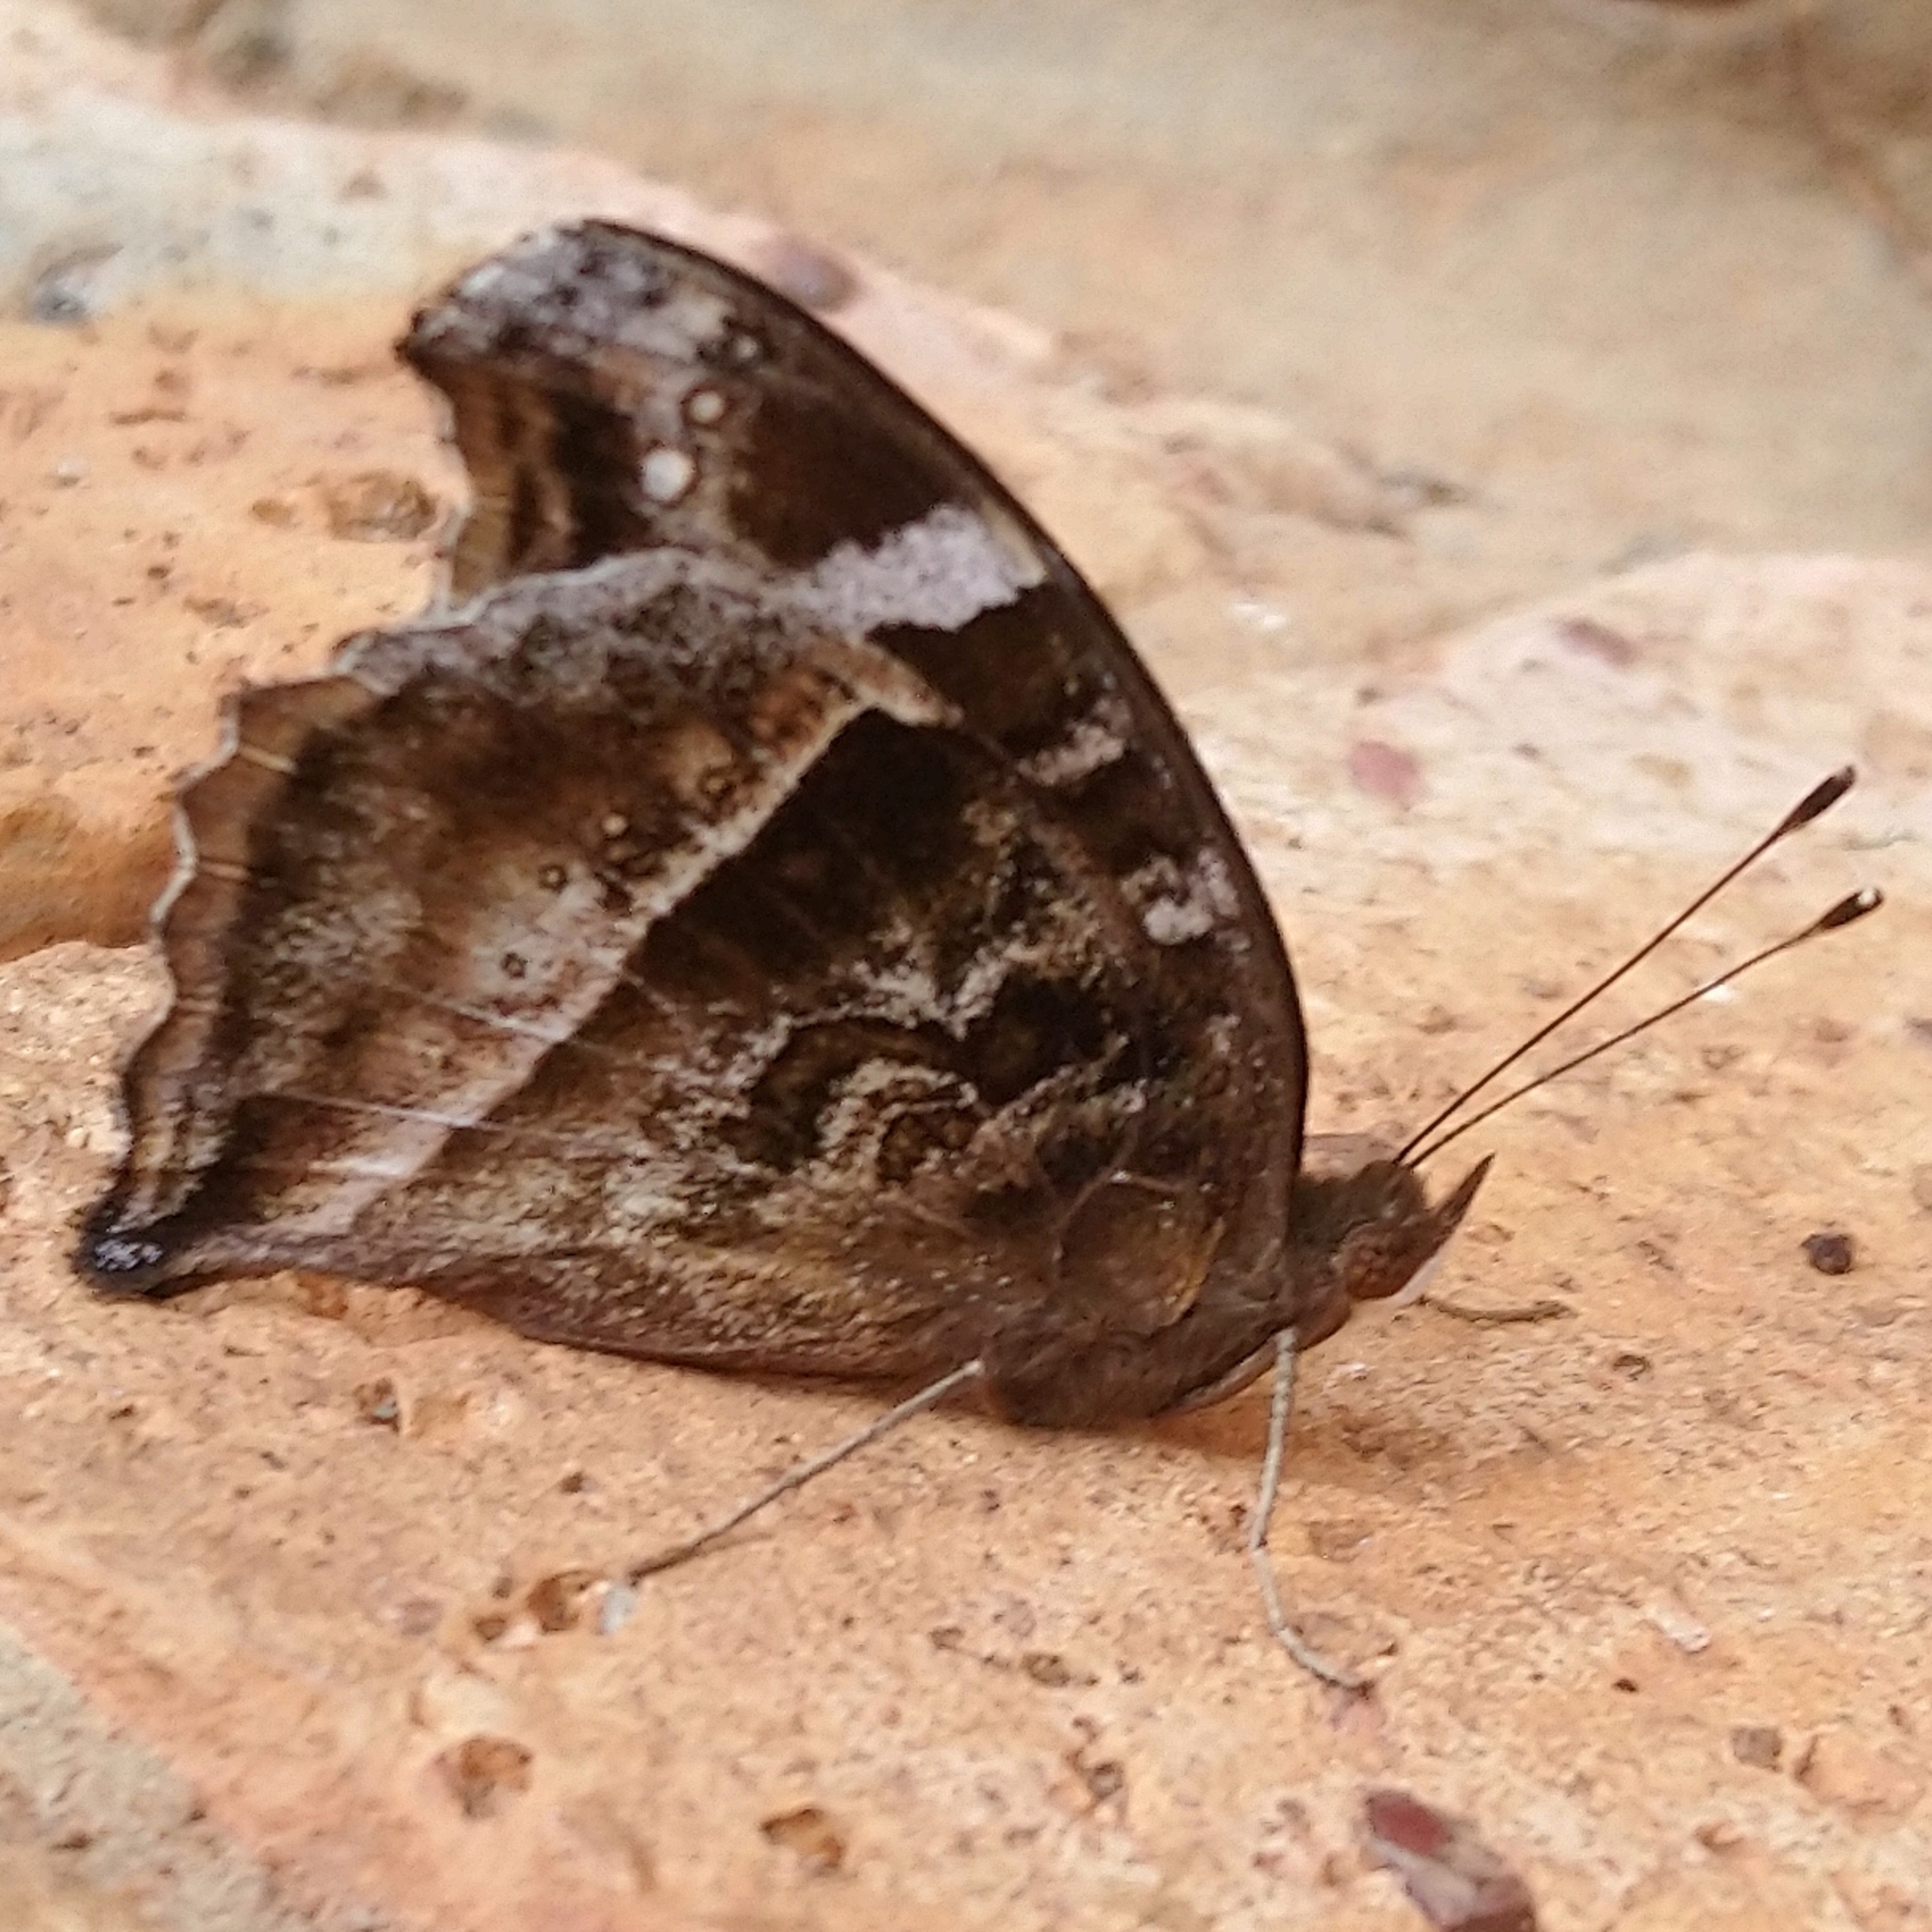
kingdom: Animalia
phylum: Arthropoda
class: Insecta
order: Lepidoptera
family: Nymphalidae
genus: Junonia
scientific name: Junonia archesia
